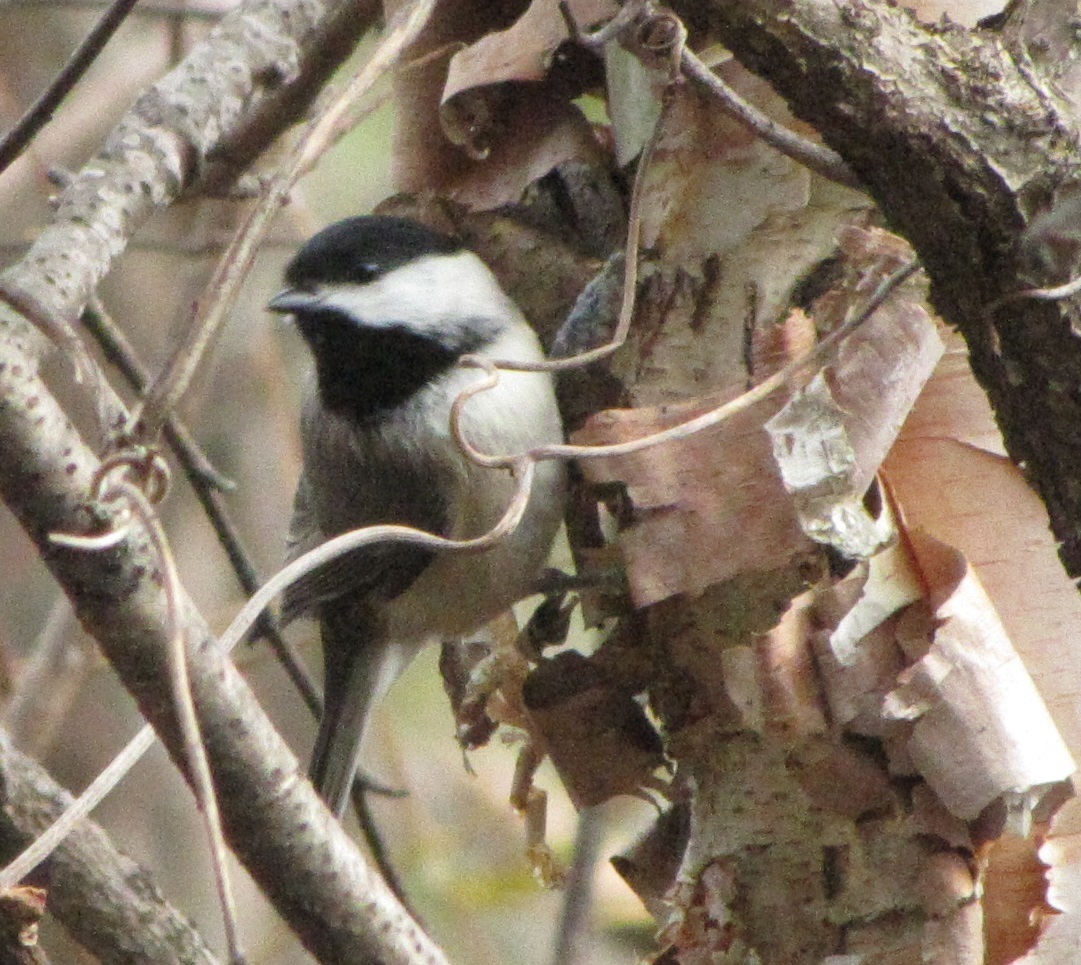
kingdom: Animalia
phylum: Chordata
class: Aves
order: Passeriformes
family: Paridae
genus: Poecile
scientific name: Poecile carolinensis
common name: Carolina chickadee
